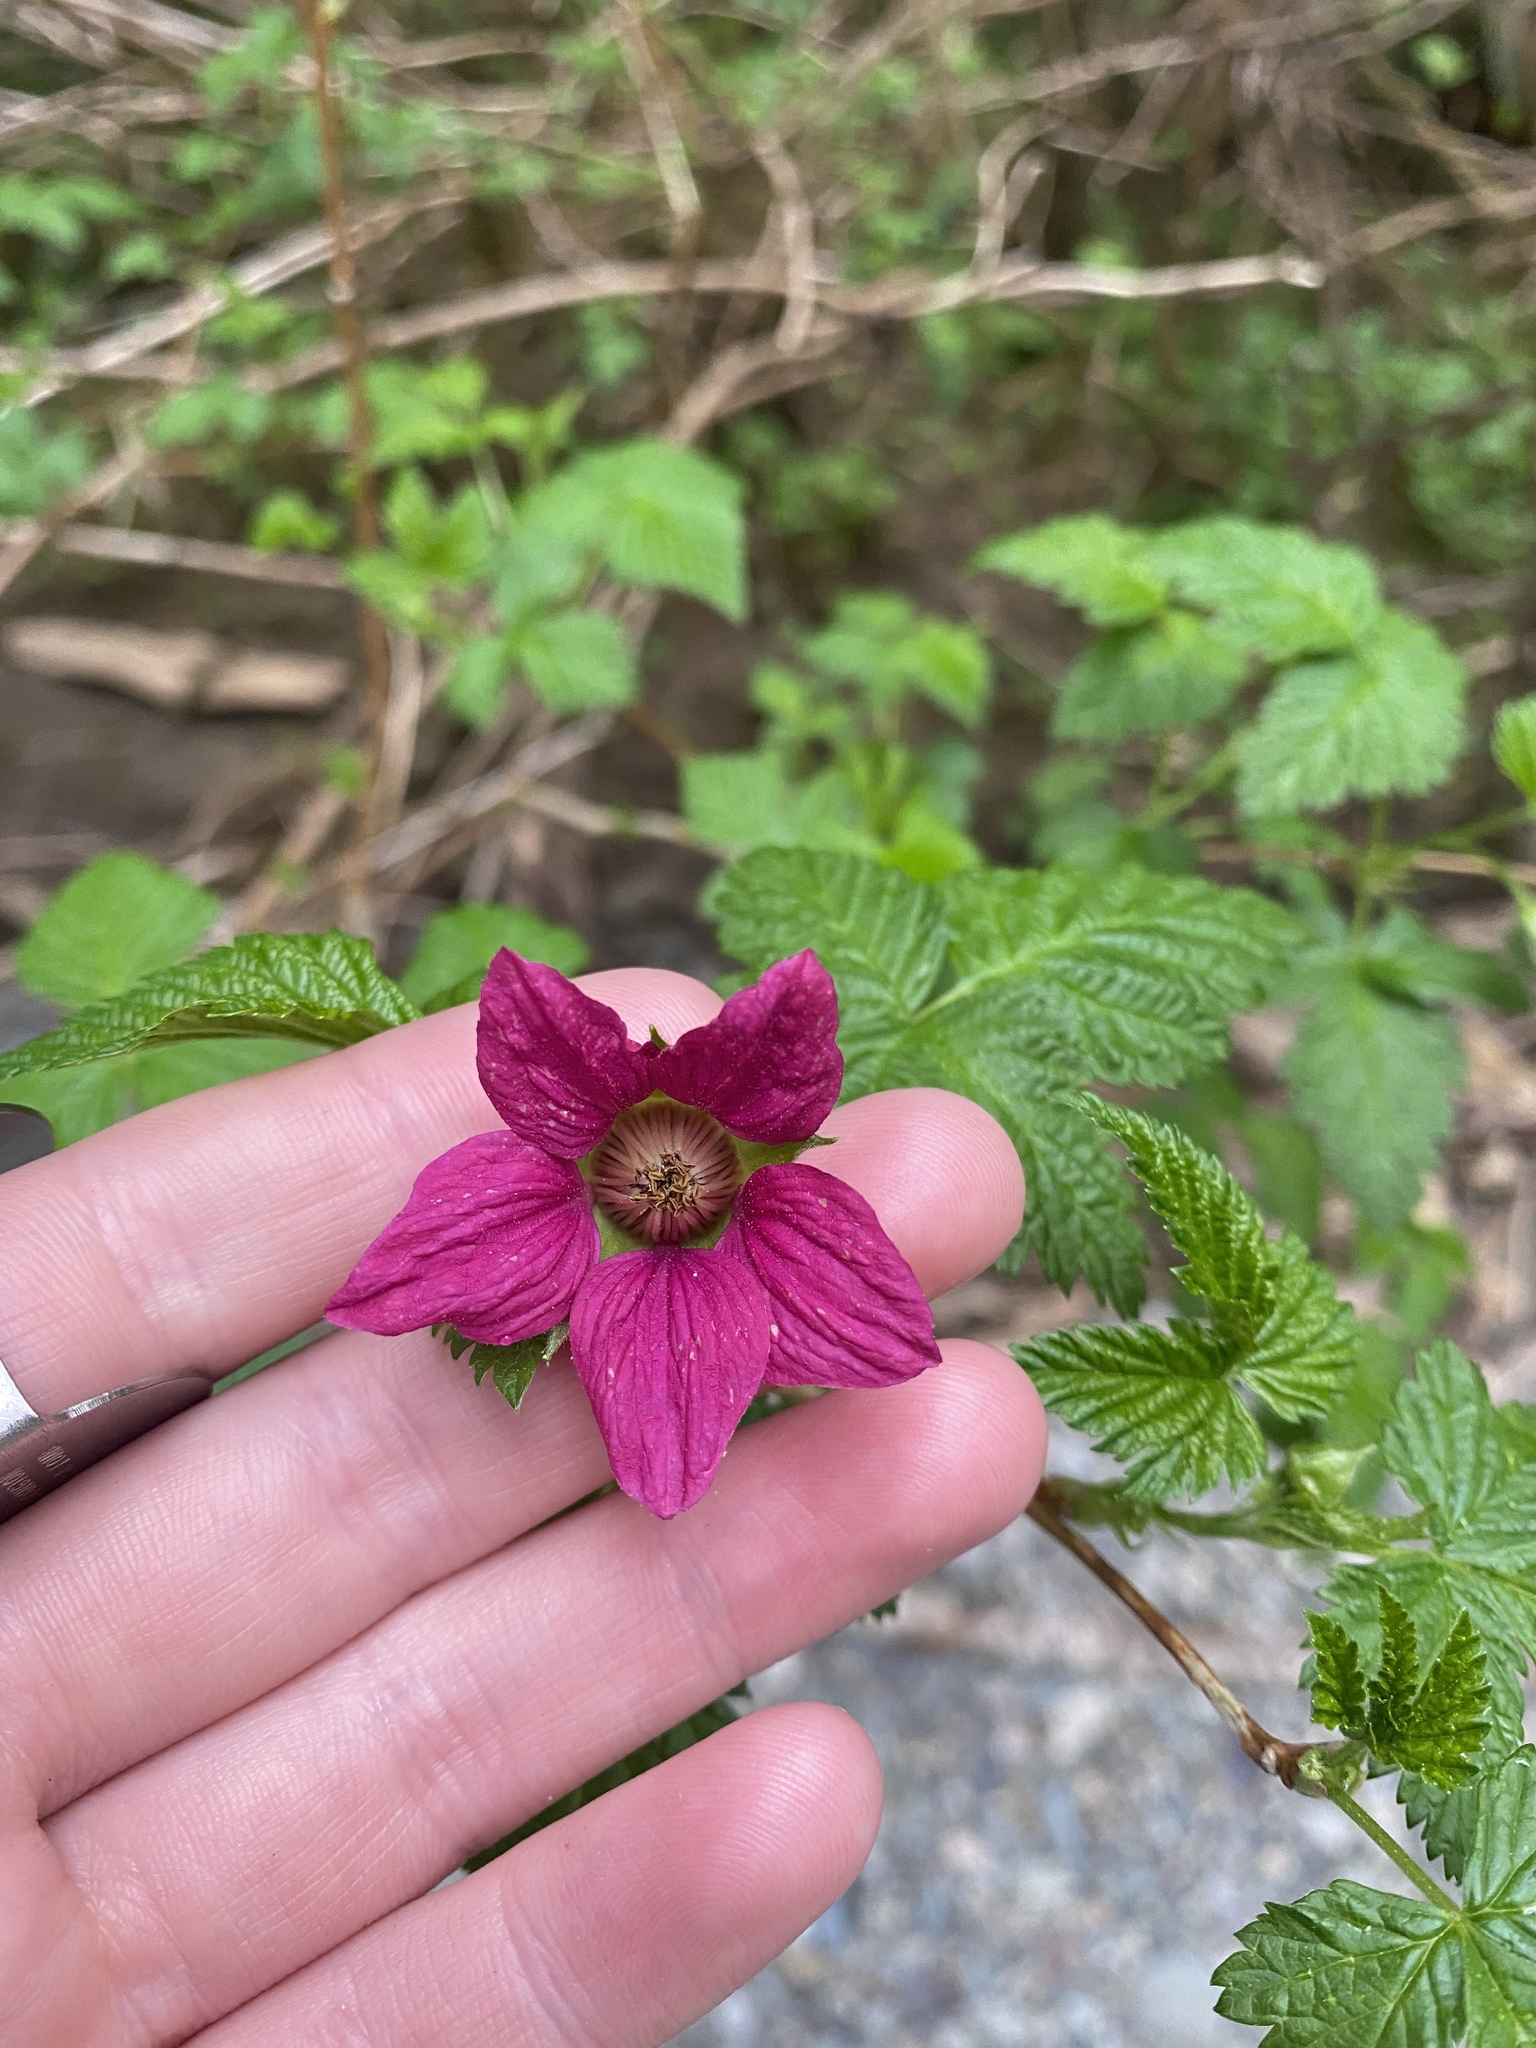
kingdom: Plantae
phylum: Tracheophyta
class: Magnoliopsida
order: Rosales
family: Rosaceae
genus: Rubus
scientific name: Rubus spectabilis
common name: Salmonberry
